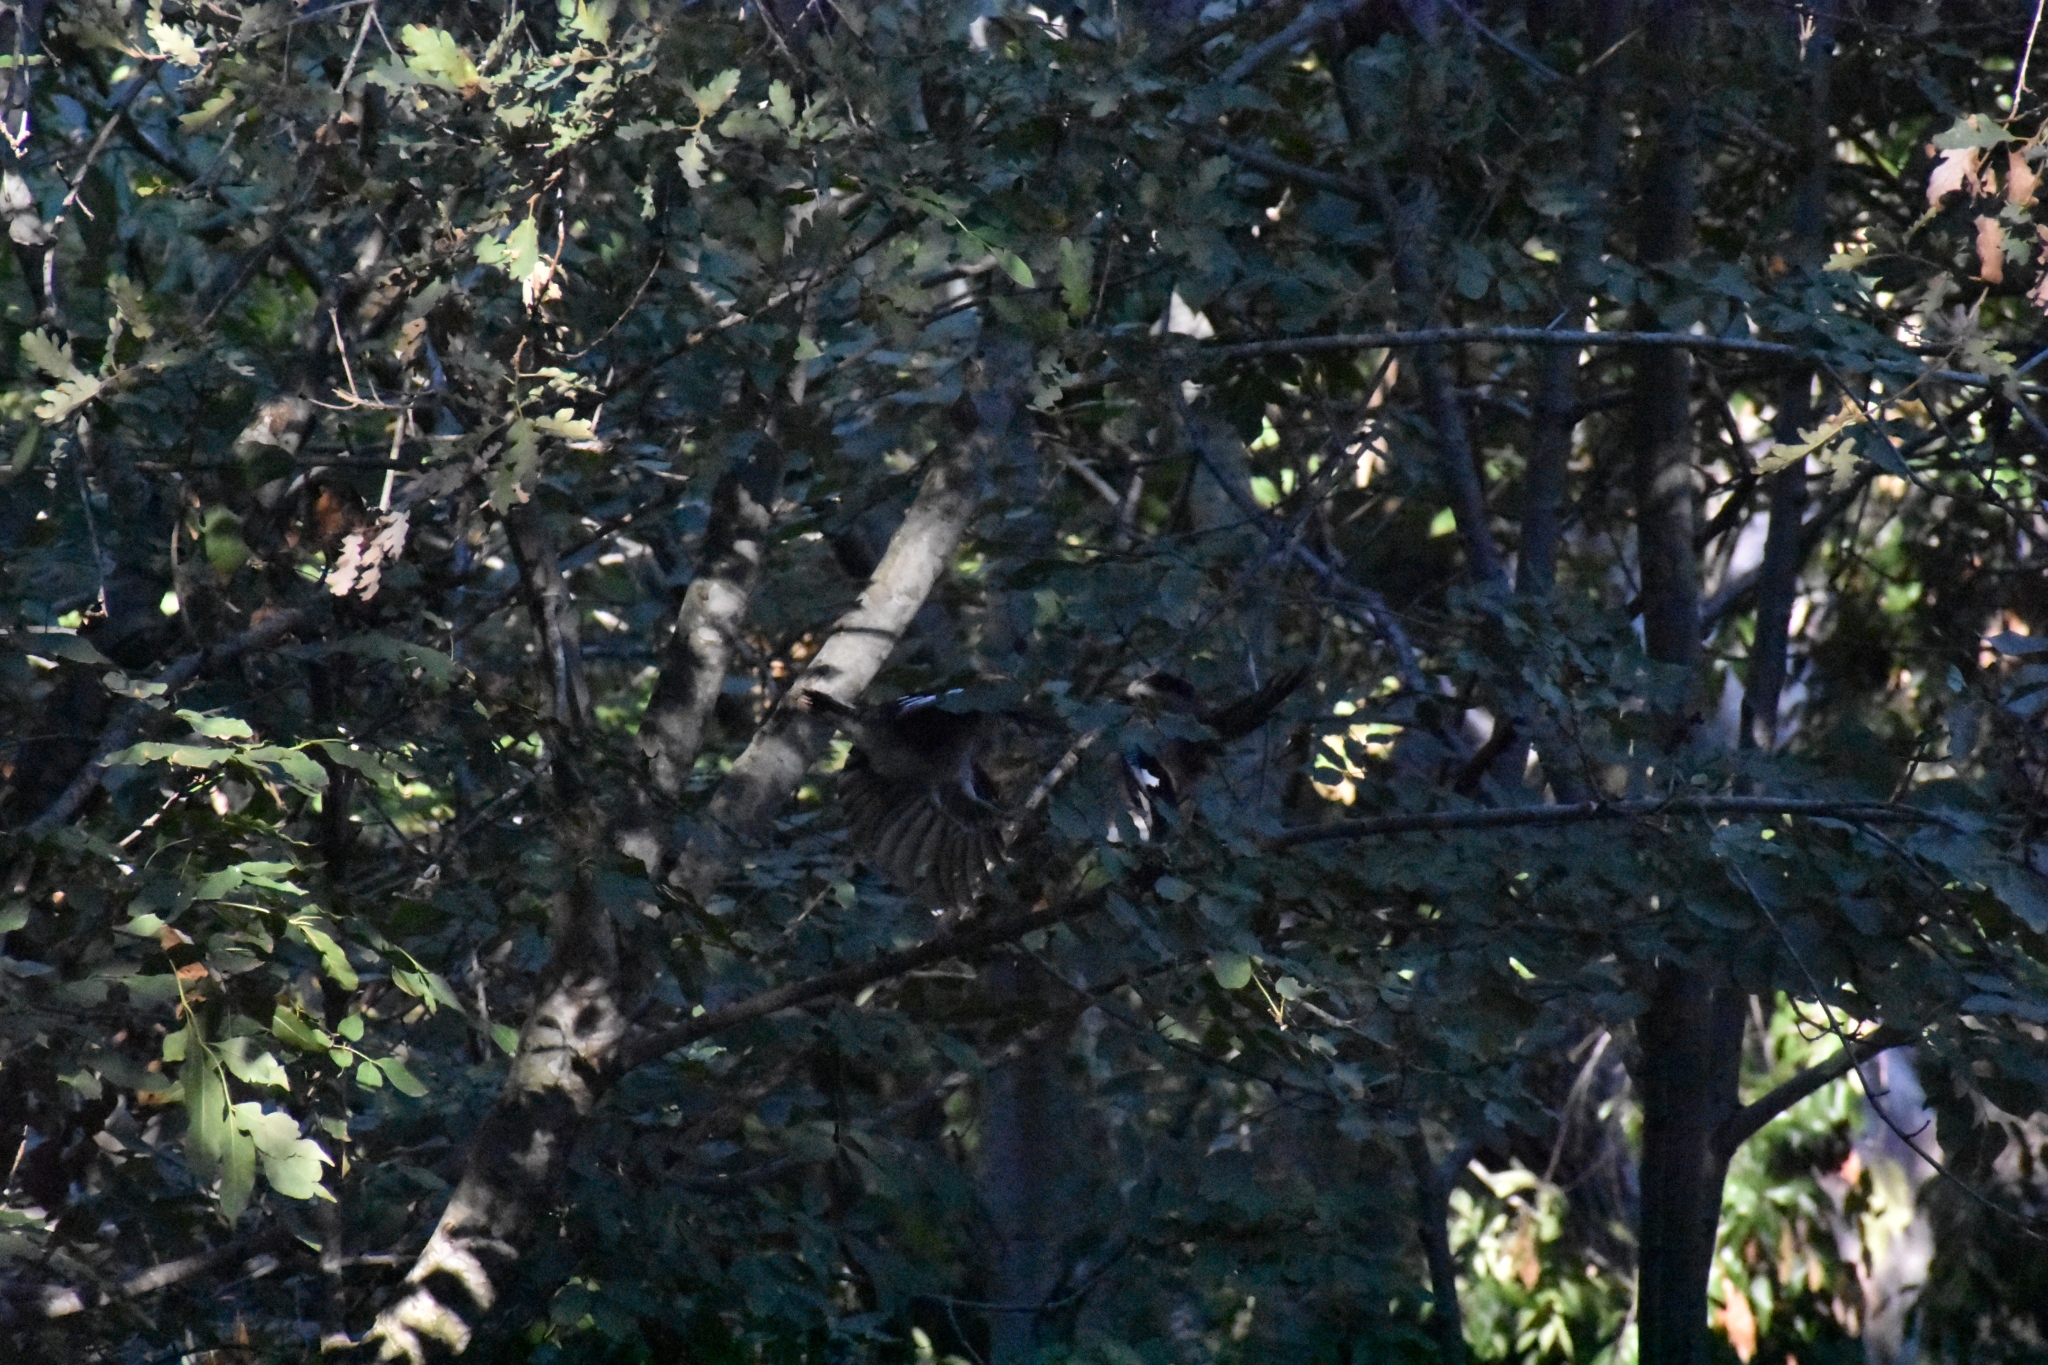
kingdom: Animalia
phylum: Chordata
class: Aves
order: Passeriformes
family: Corvidae
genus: Garrulus
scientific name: Garrulus glandarius
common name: Eurasian jay
